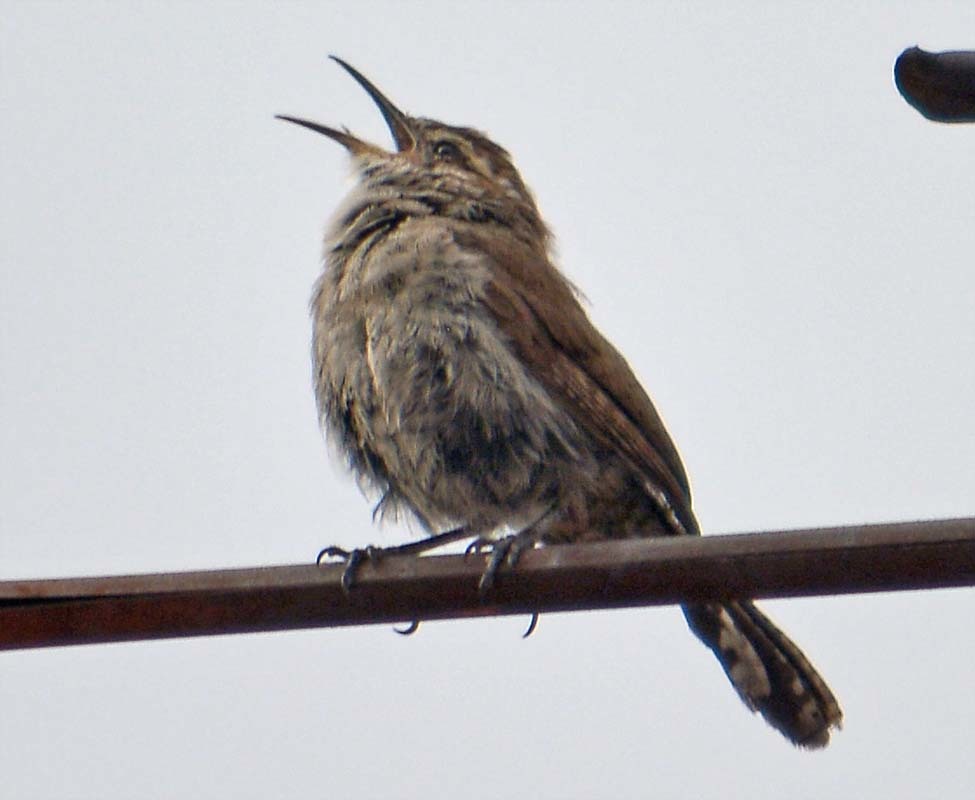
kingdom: Animalia
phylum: Chordata
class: Aves
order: Passeriformes
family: Troglodytidae
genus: Thryomanes
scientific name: Thryomanes bewickii
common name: Bewick's wren
